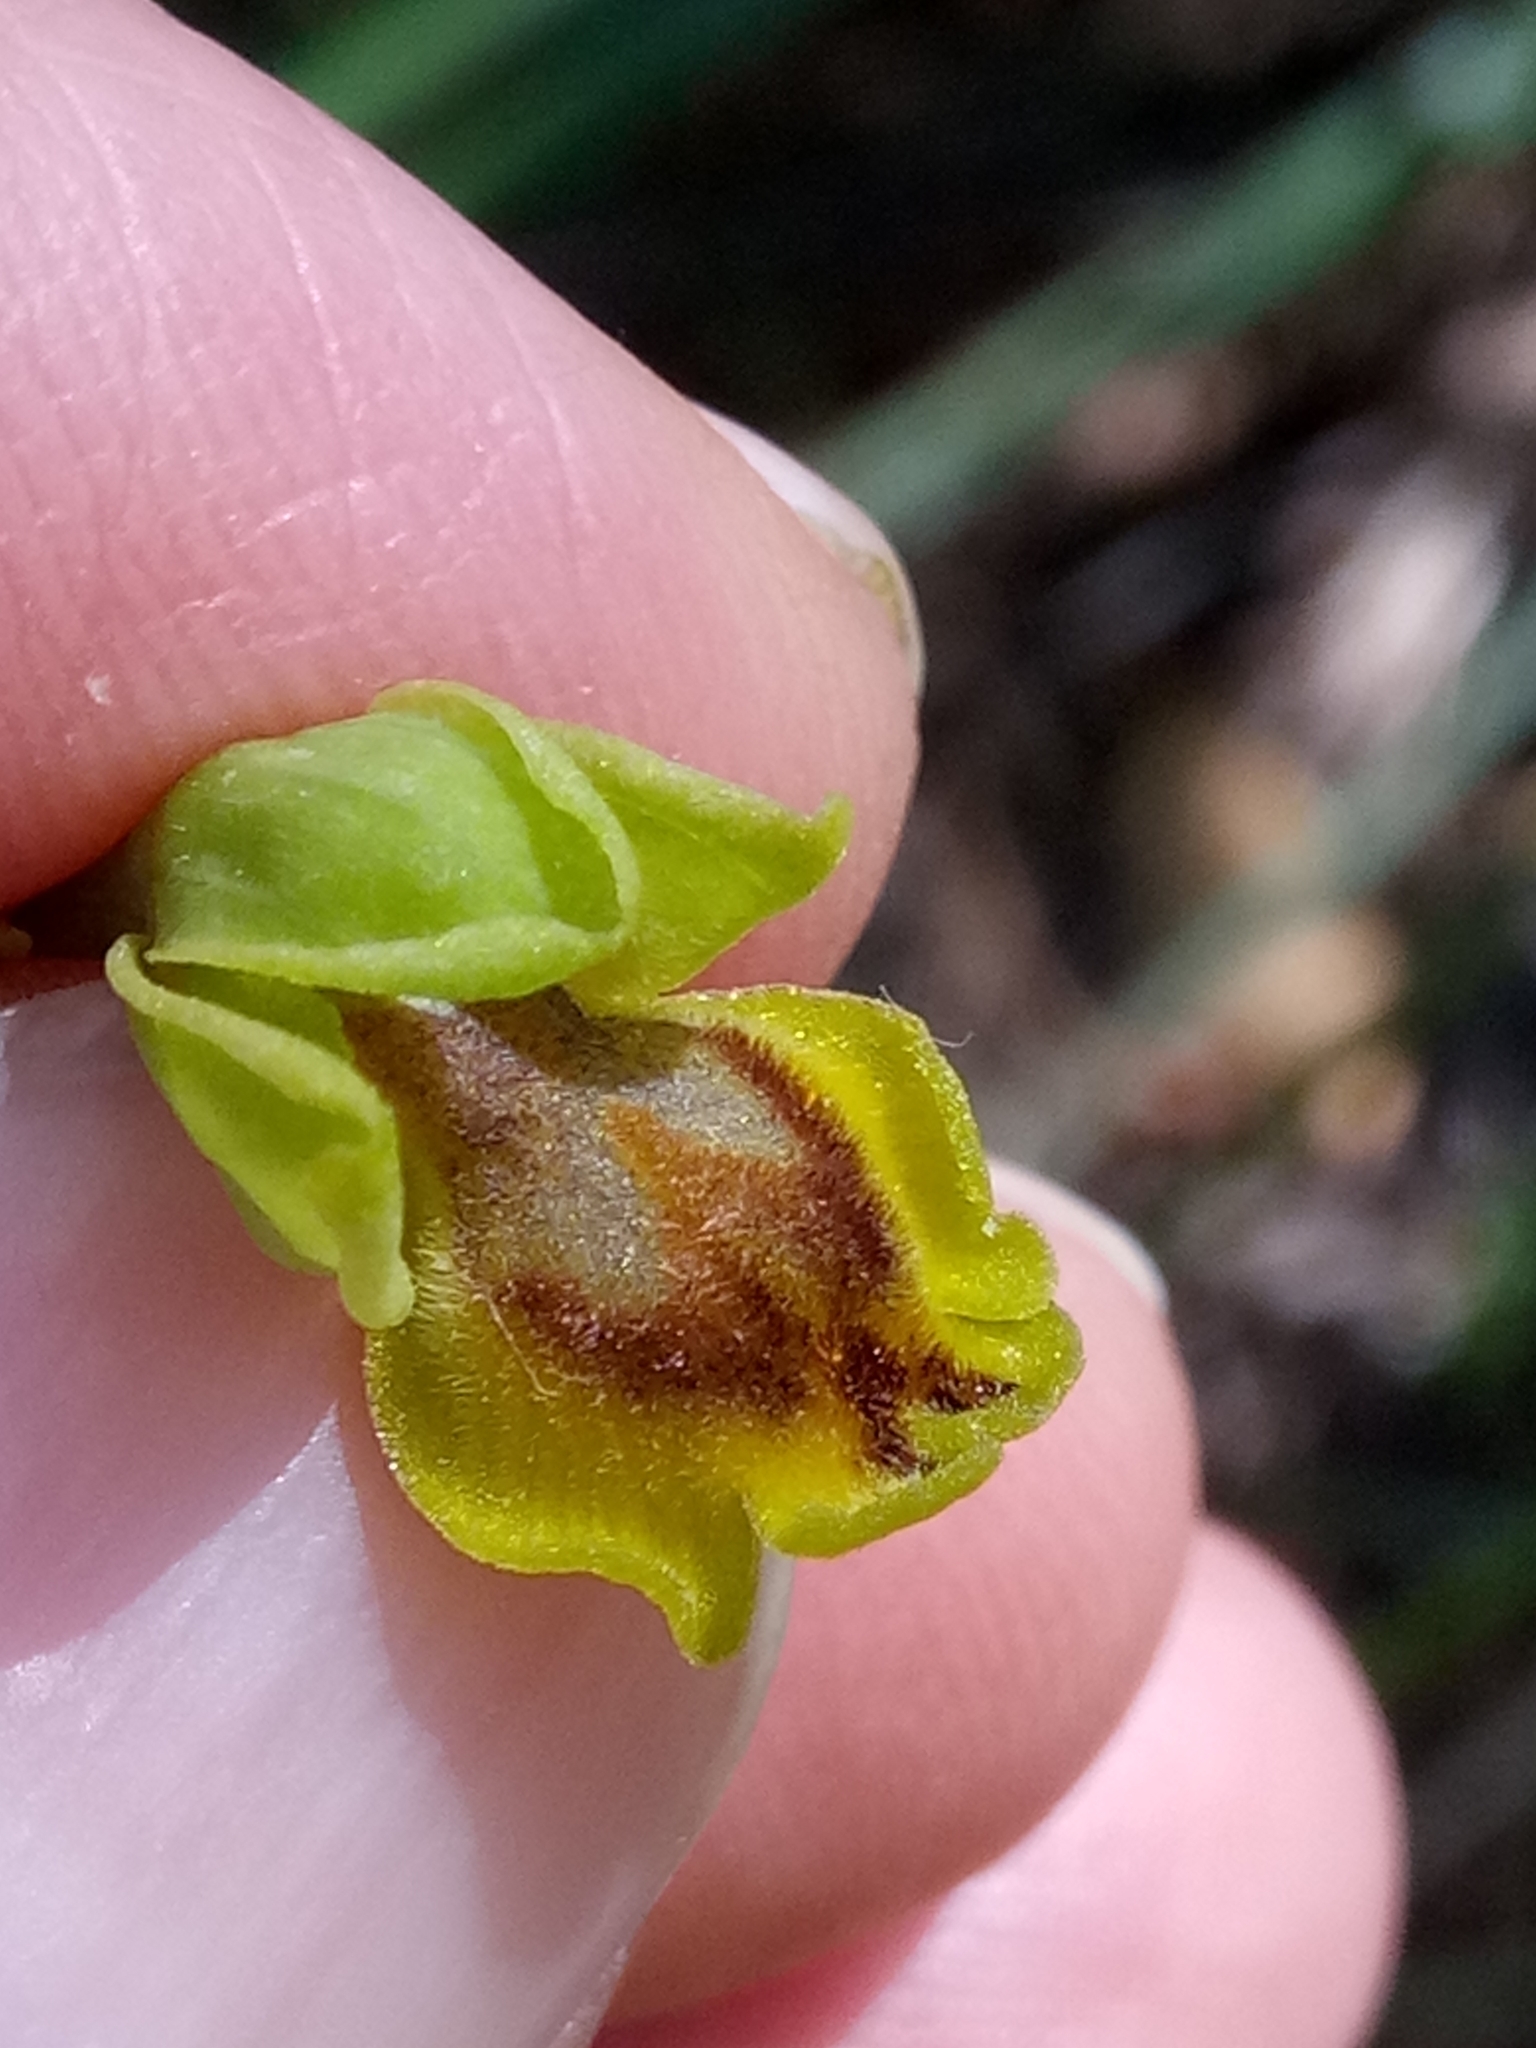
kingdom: Plantae
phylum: Tracheophyta
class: Liliopsida
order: Asparagales
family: Orchidaceae
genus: Ophrys
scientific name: Ophrys battandieri
